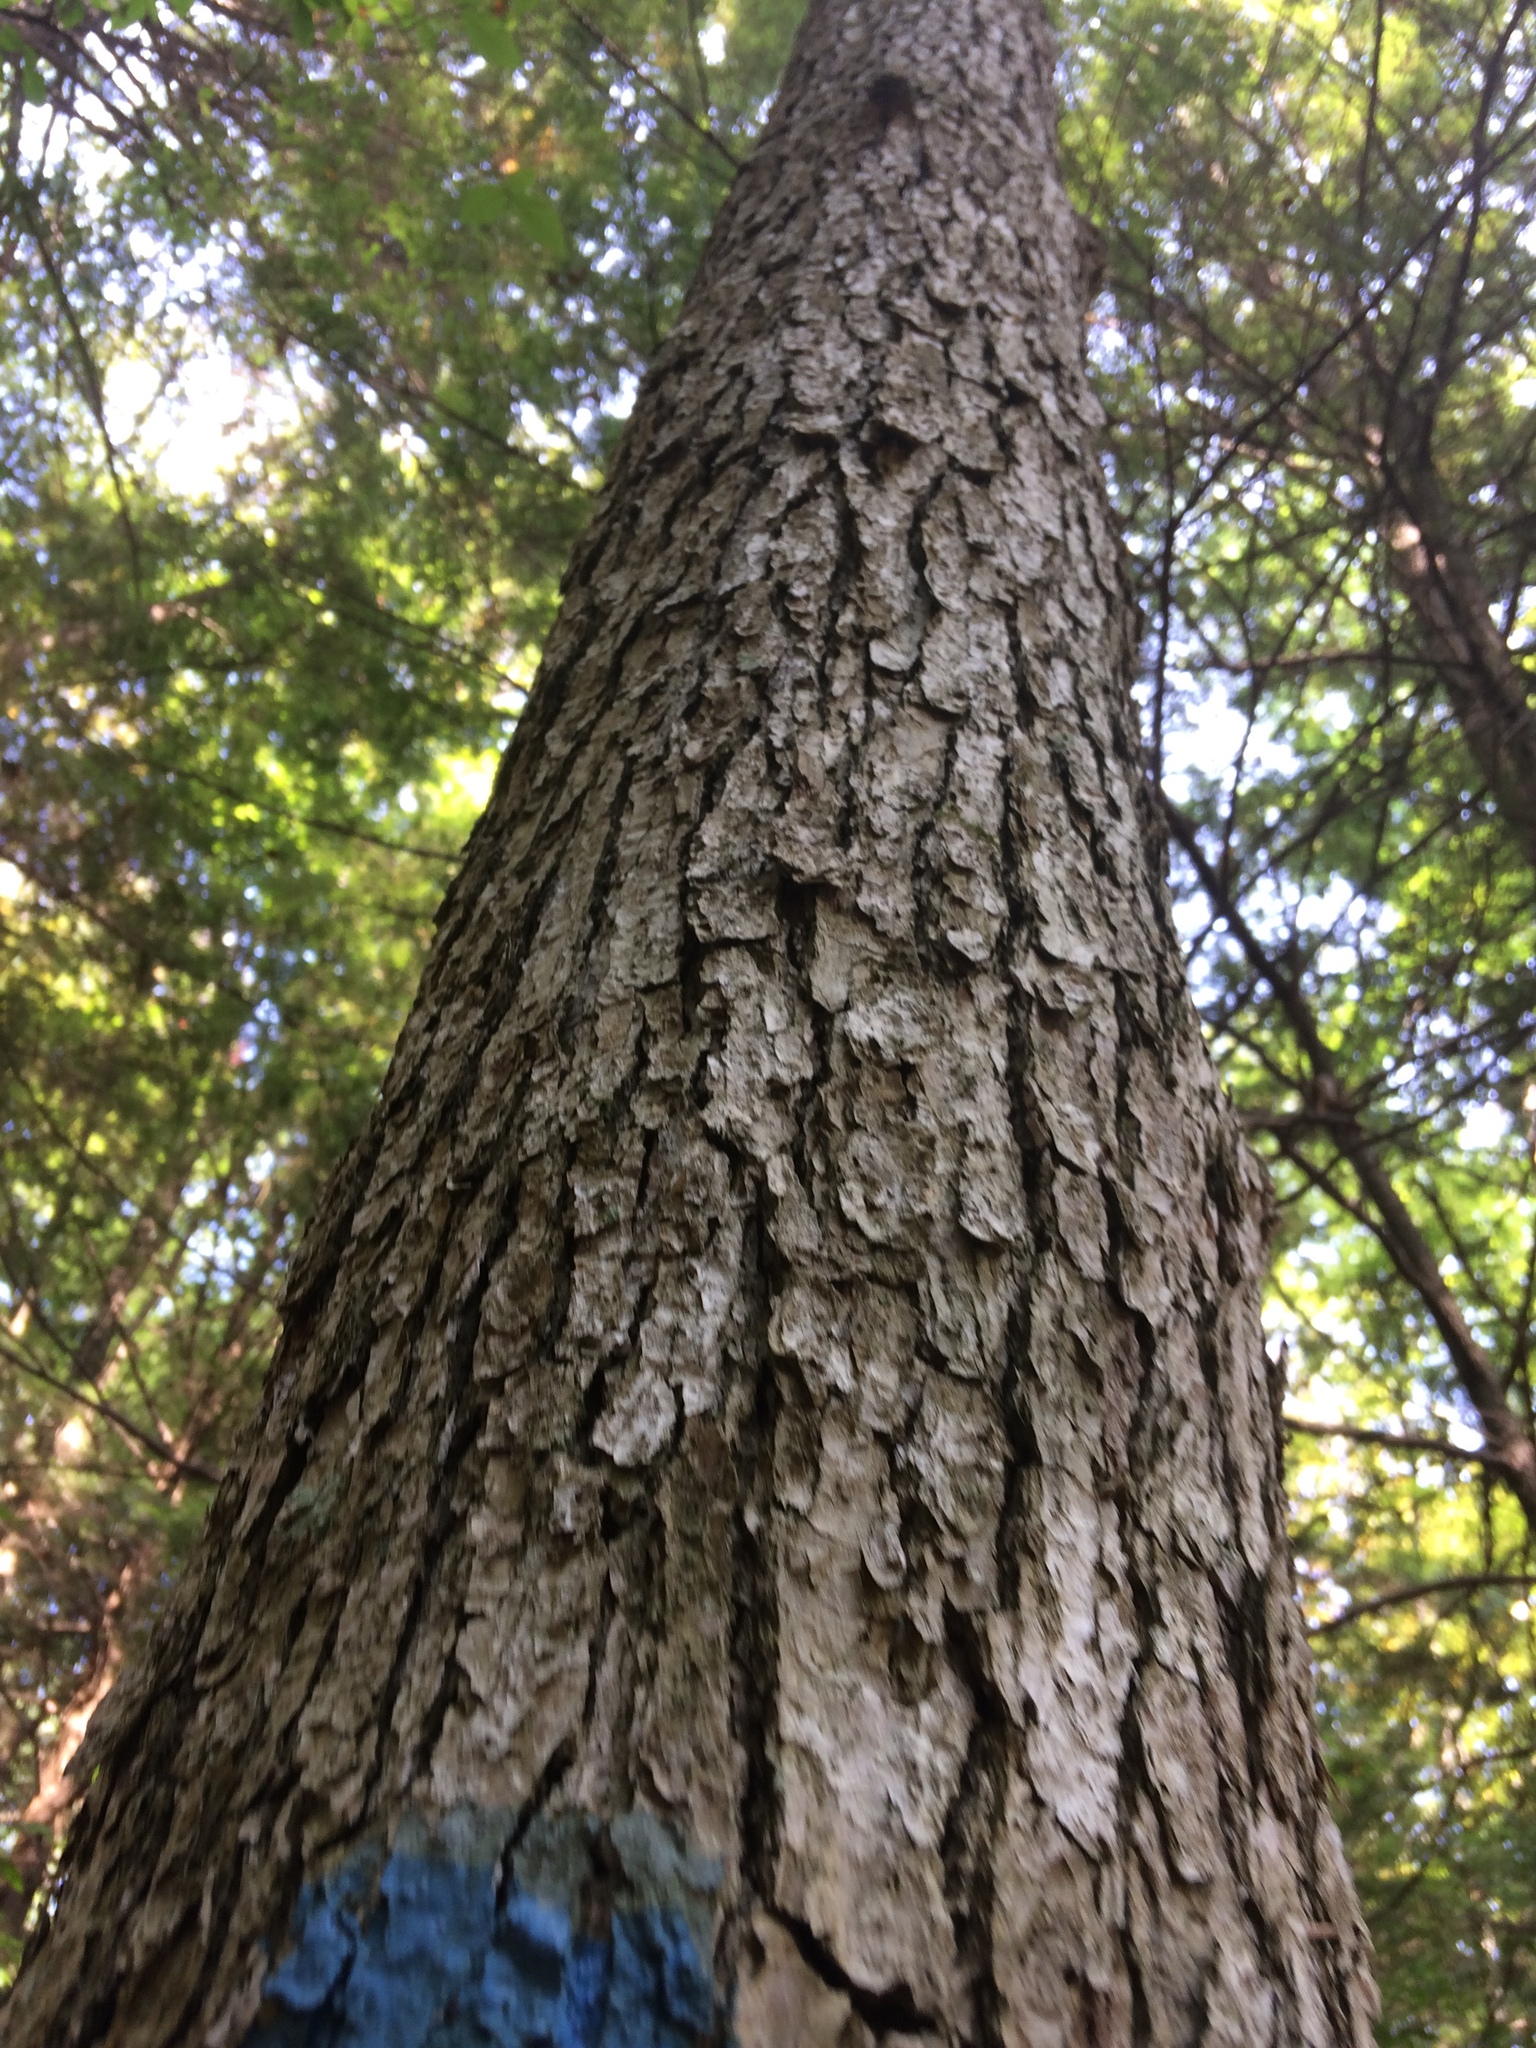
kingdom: Plantae
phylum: Tracheophyta
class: Magnoliopsida
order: Fagales
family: Fagaceae
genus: Quercus
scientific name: Quercus alba
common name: White oak
